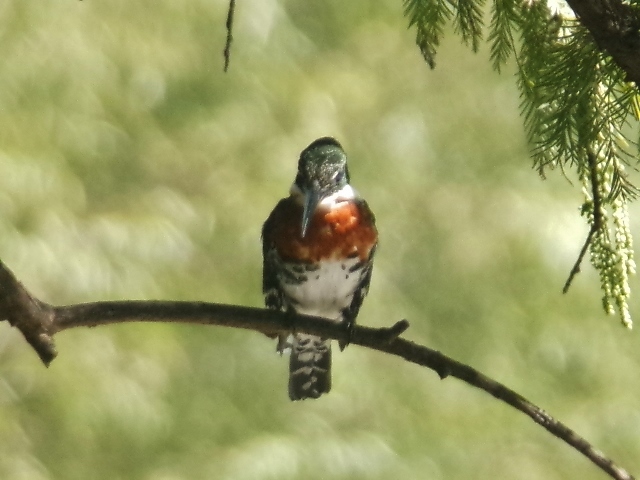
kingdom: Animalia
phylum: Chordata
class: Aves
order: Coraciiformes
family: Alcedinidae
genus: Chloroceryle
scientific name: Chloroceryle americana
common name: Green kingfisher
